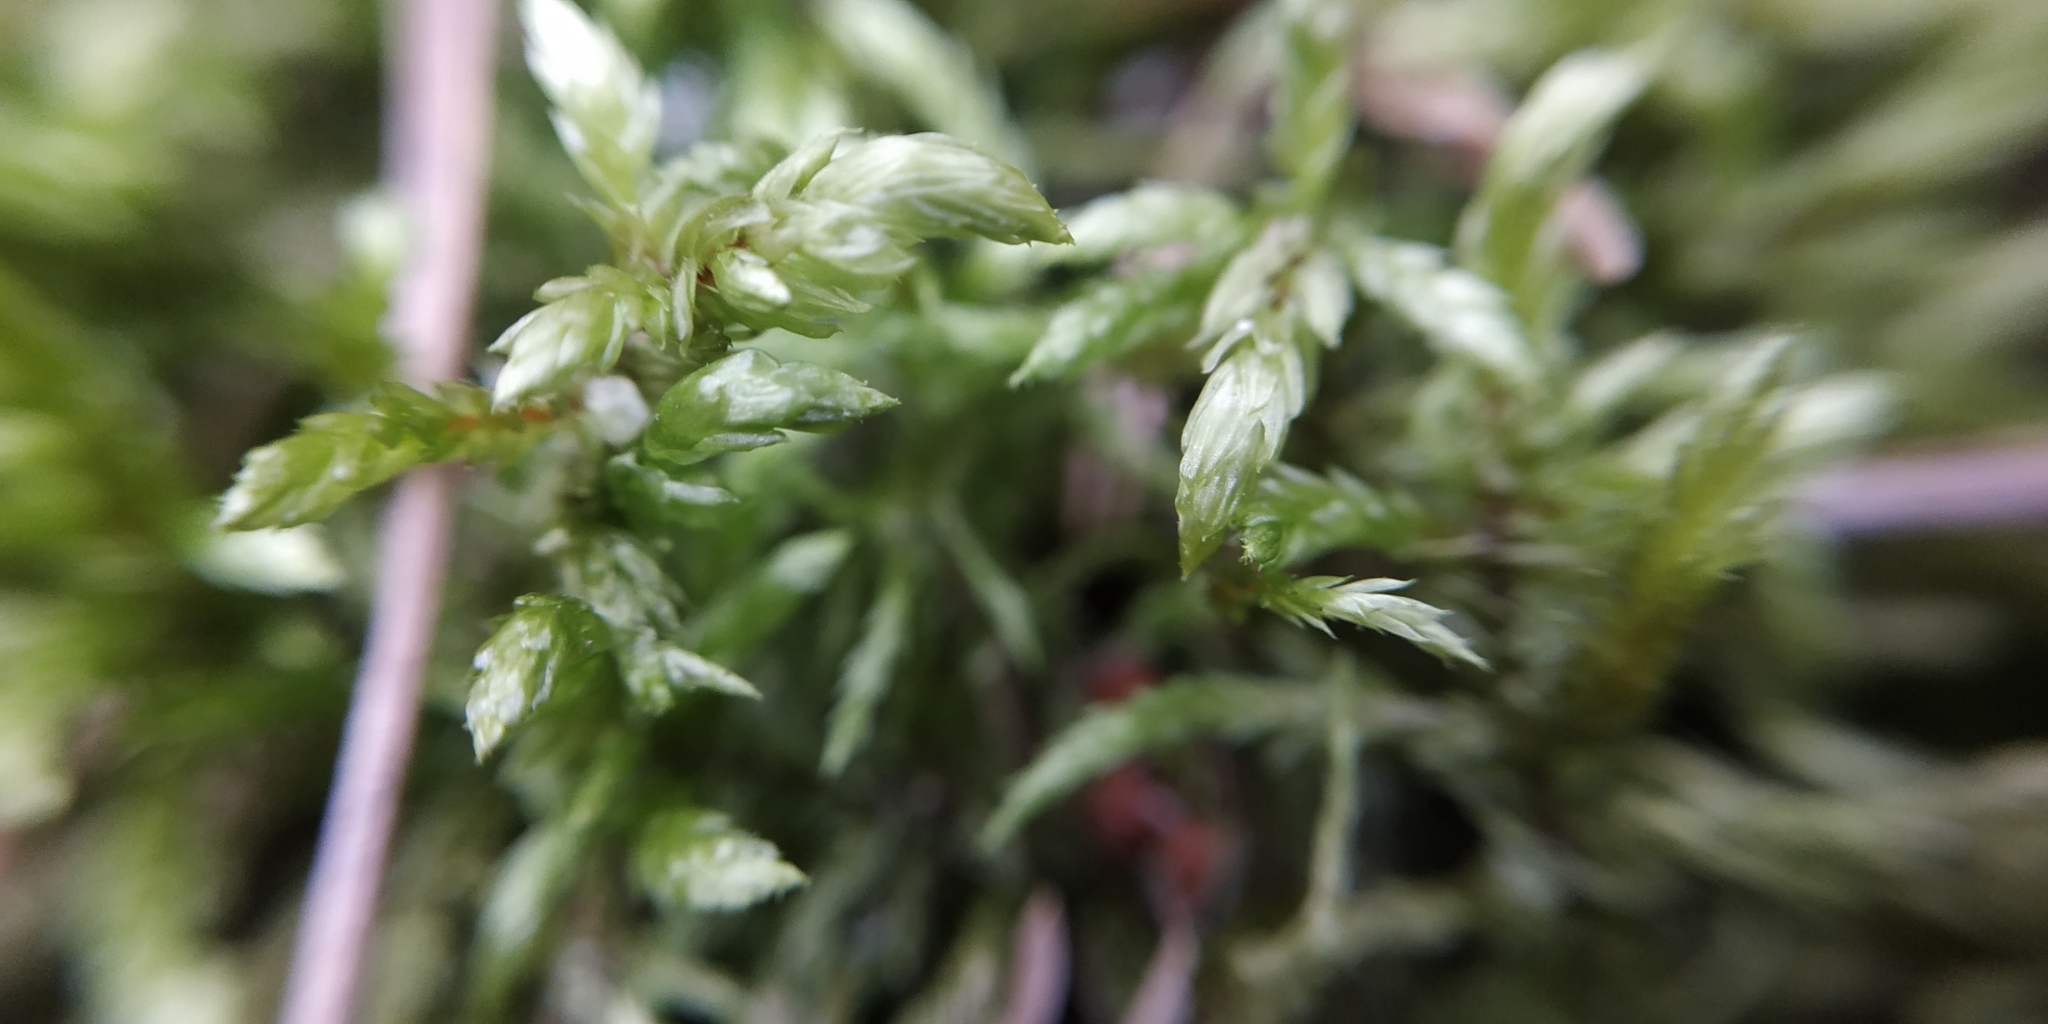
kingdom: Plantae
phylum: Bryophyta
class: Bryopsida
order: Hypnales
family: Hylocomiaceae
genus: Pleurozium
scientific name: Pleurozium schreberi
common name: Red-stemmed feather moss
